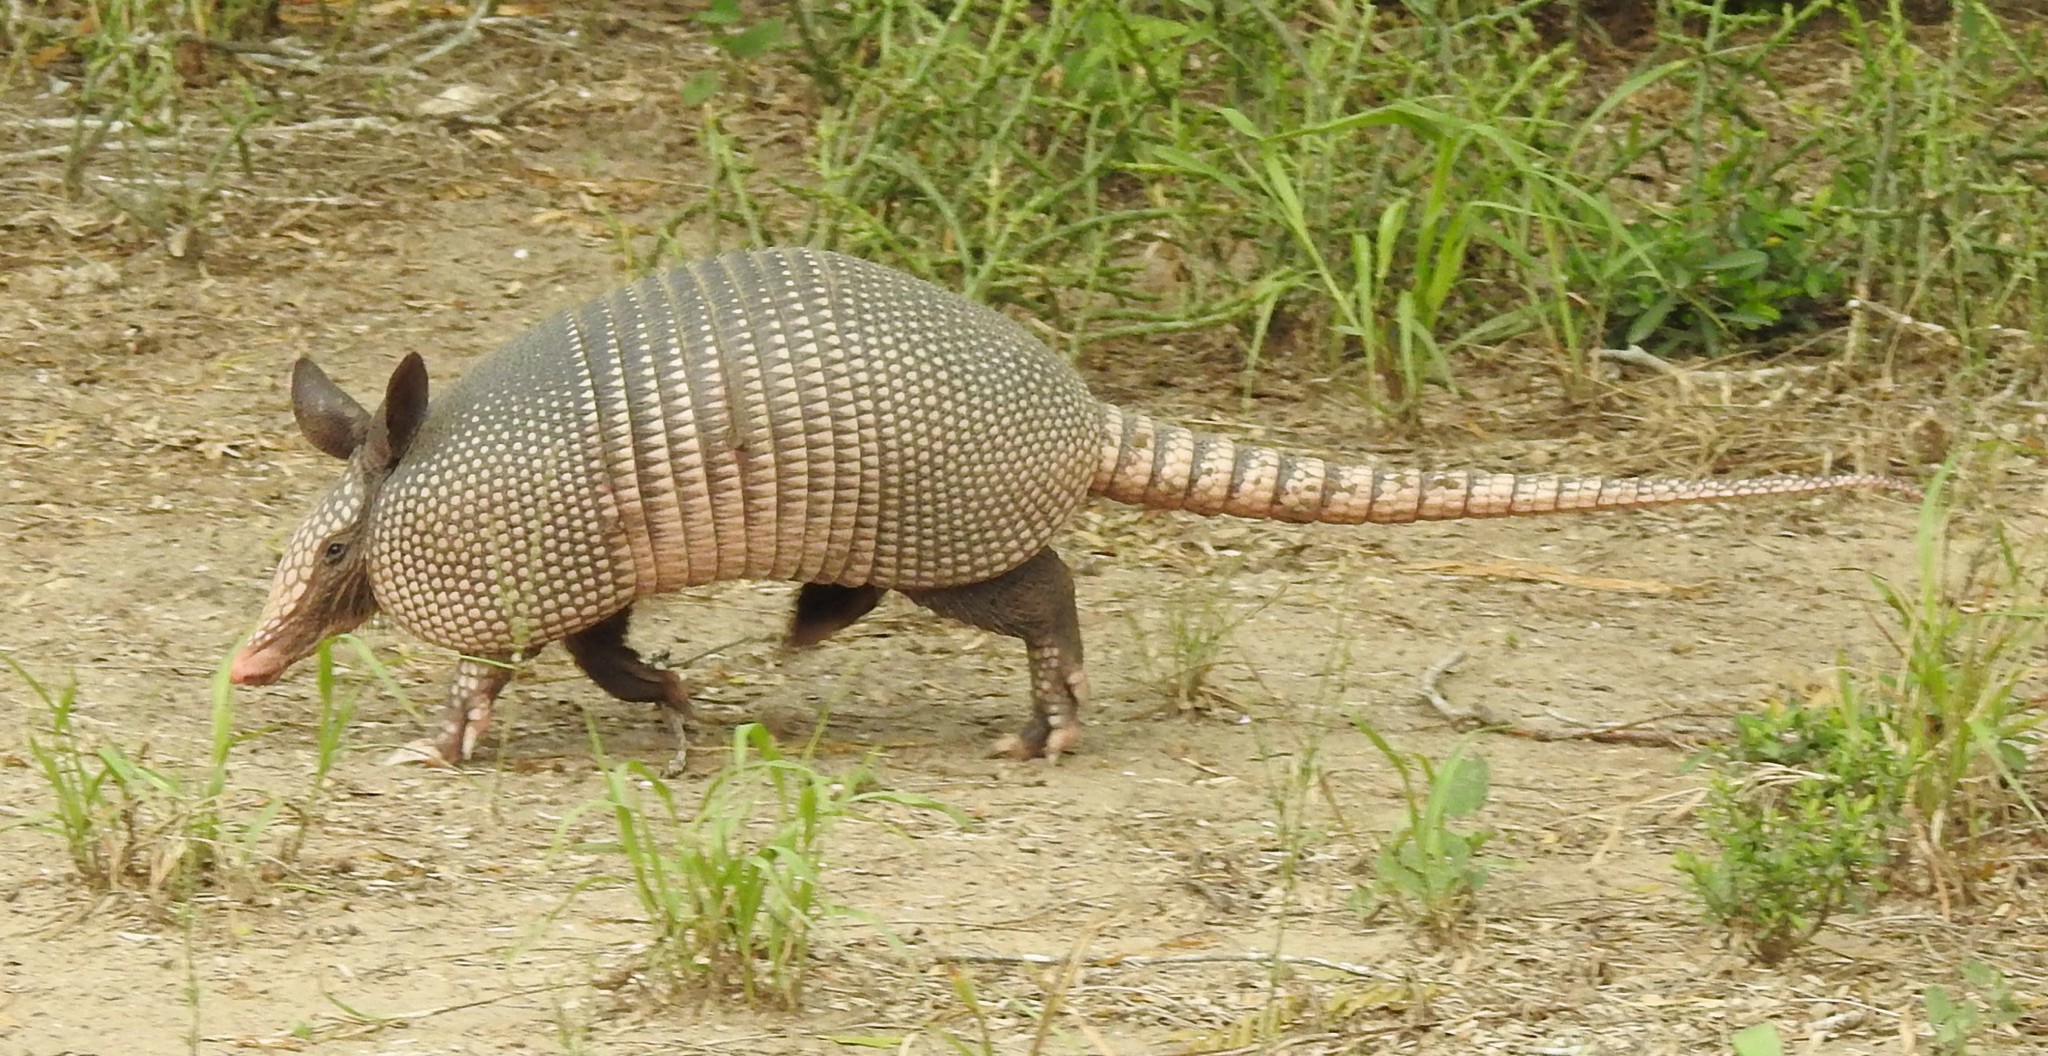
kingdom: Animalia
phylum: Chordata
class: Mammalia
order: Cingulata
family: Dasypodidae
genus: Dasypus
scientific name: Dasypus novemcinctus
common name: Nine-banded armadillo
